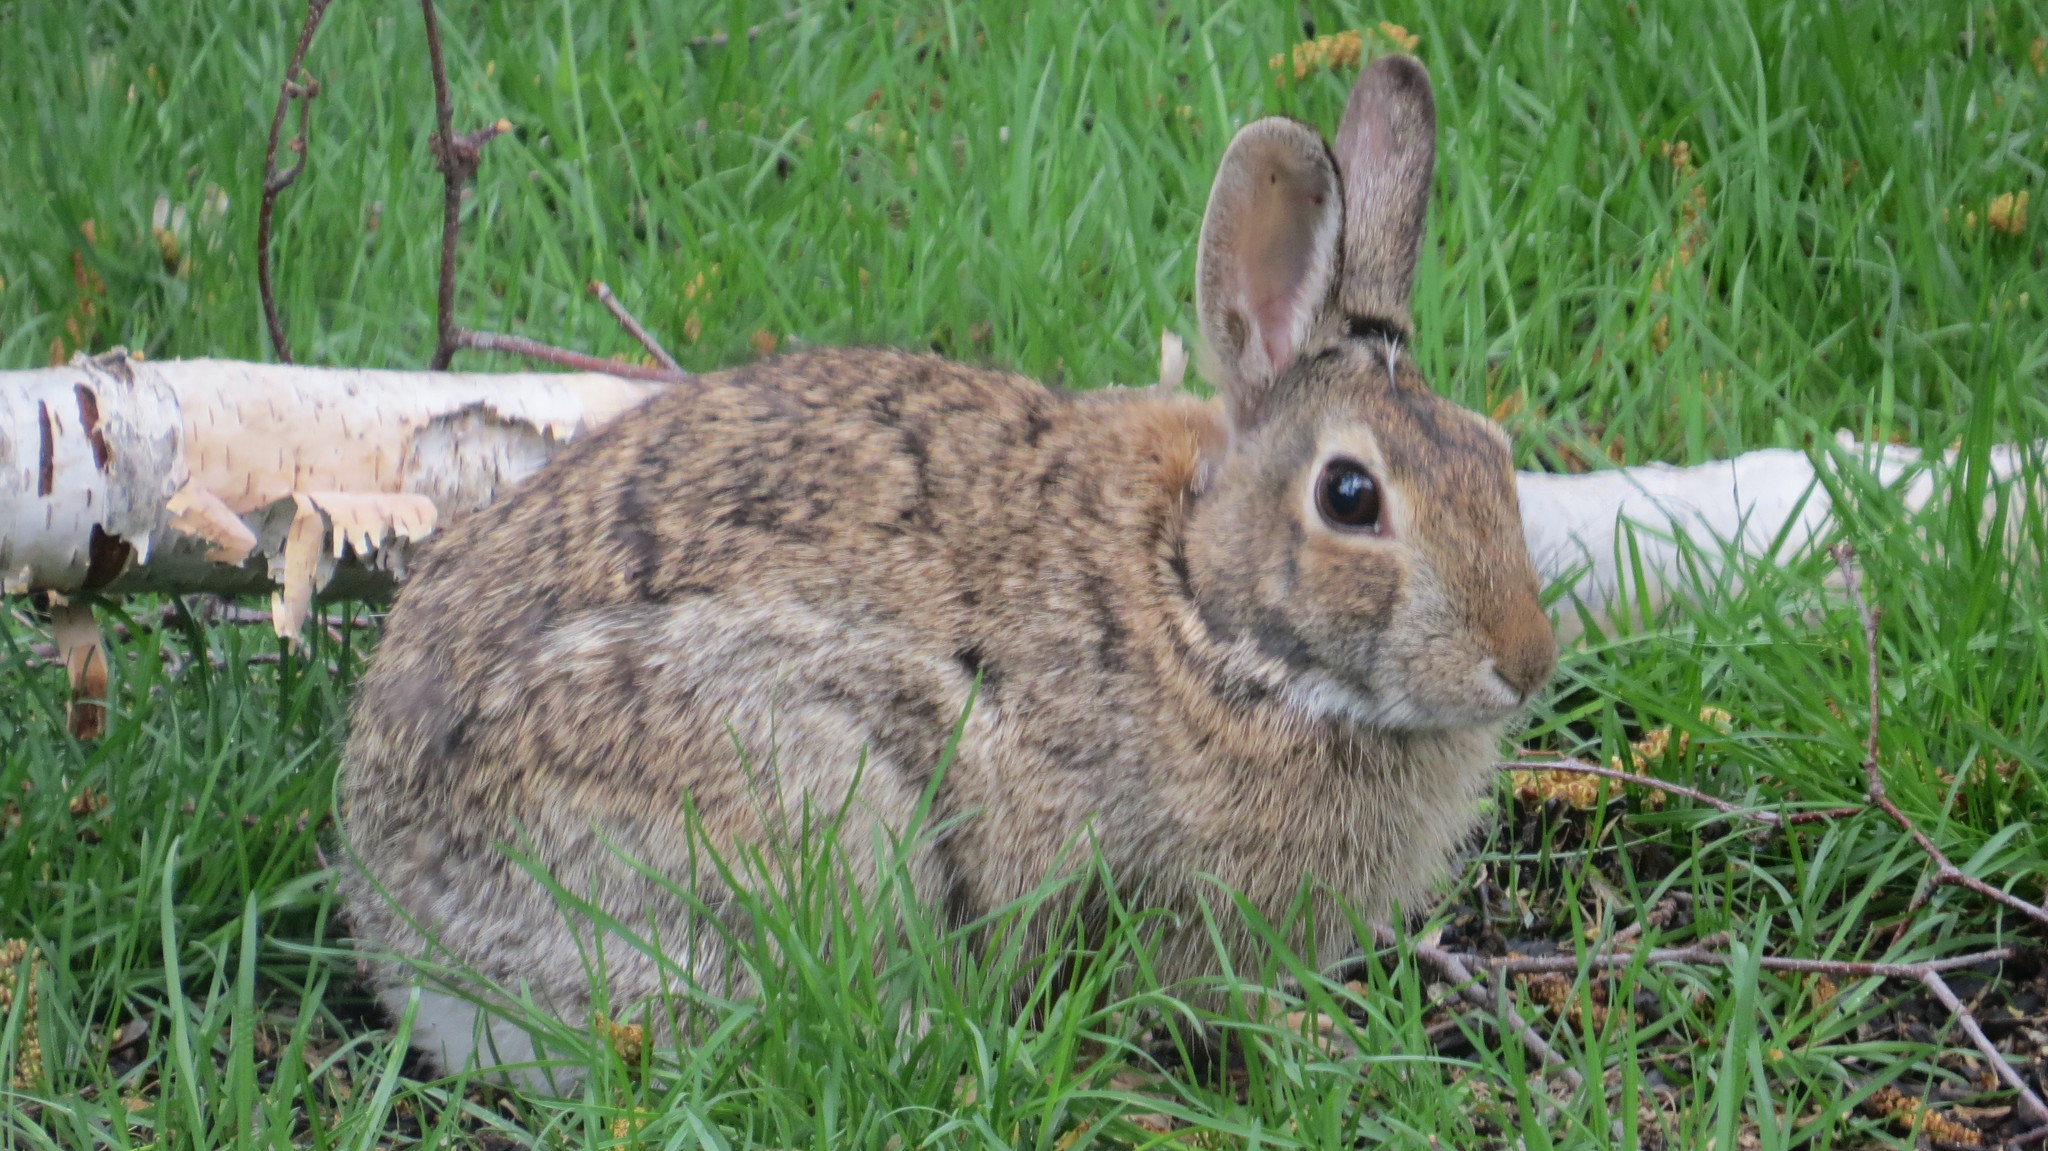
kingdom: Animalia
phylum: Chordata
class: Mammalia
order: Lagomorpha
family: Leporidae
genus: Sylvilagus
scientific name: Sylvilagus floridanus
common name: Eastern cottontail
